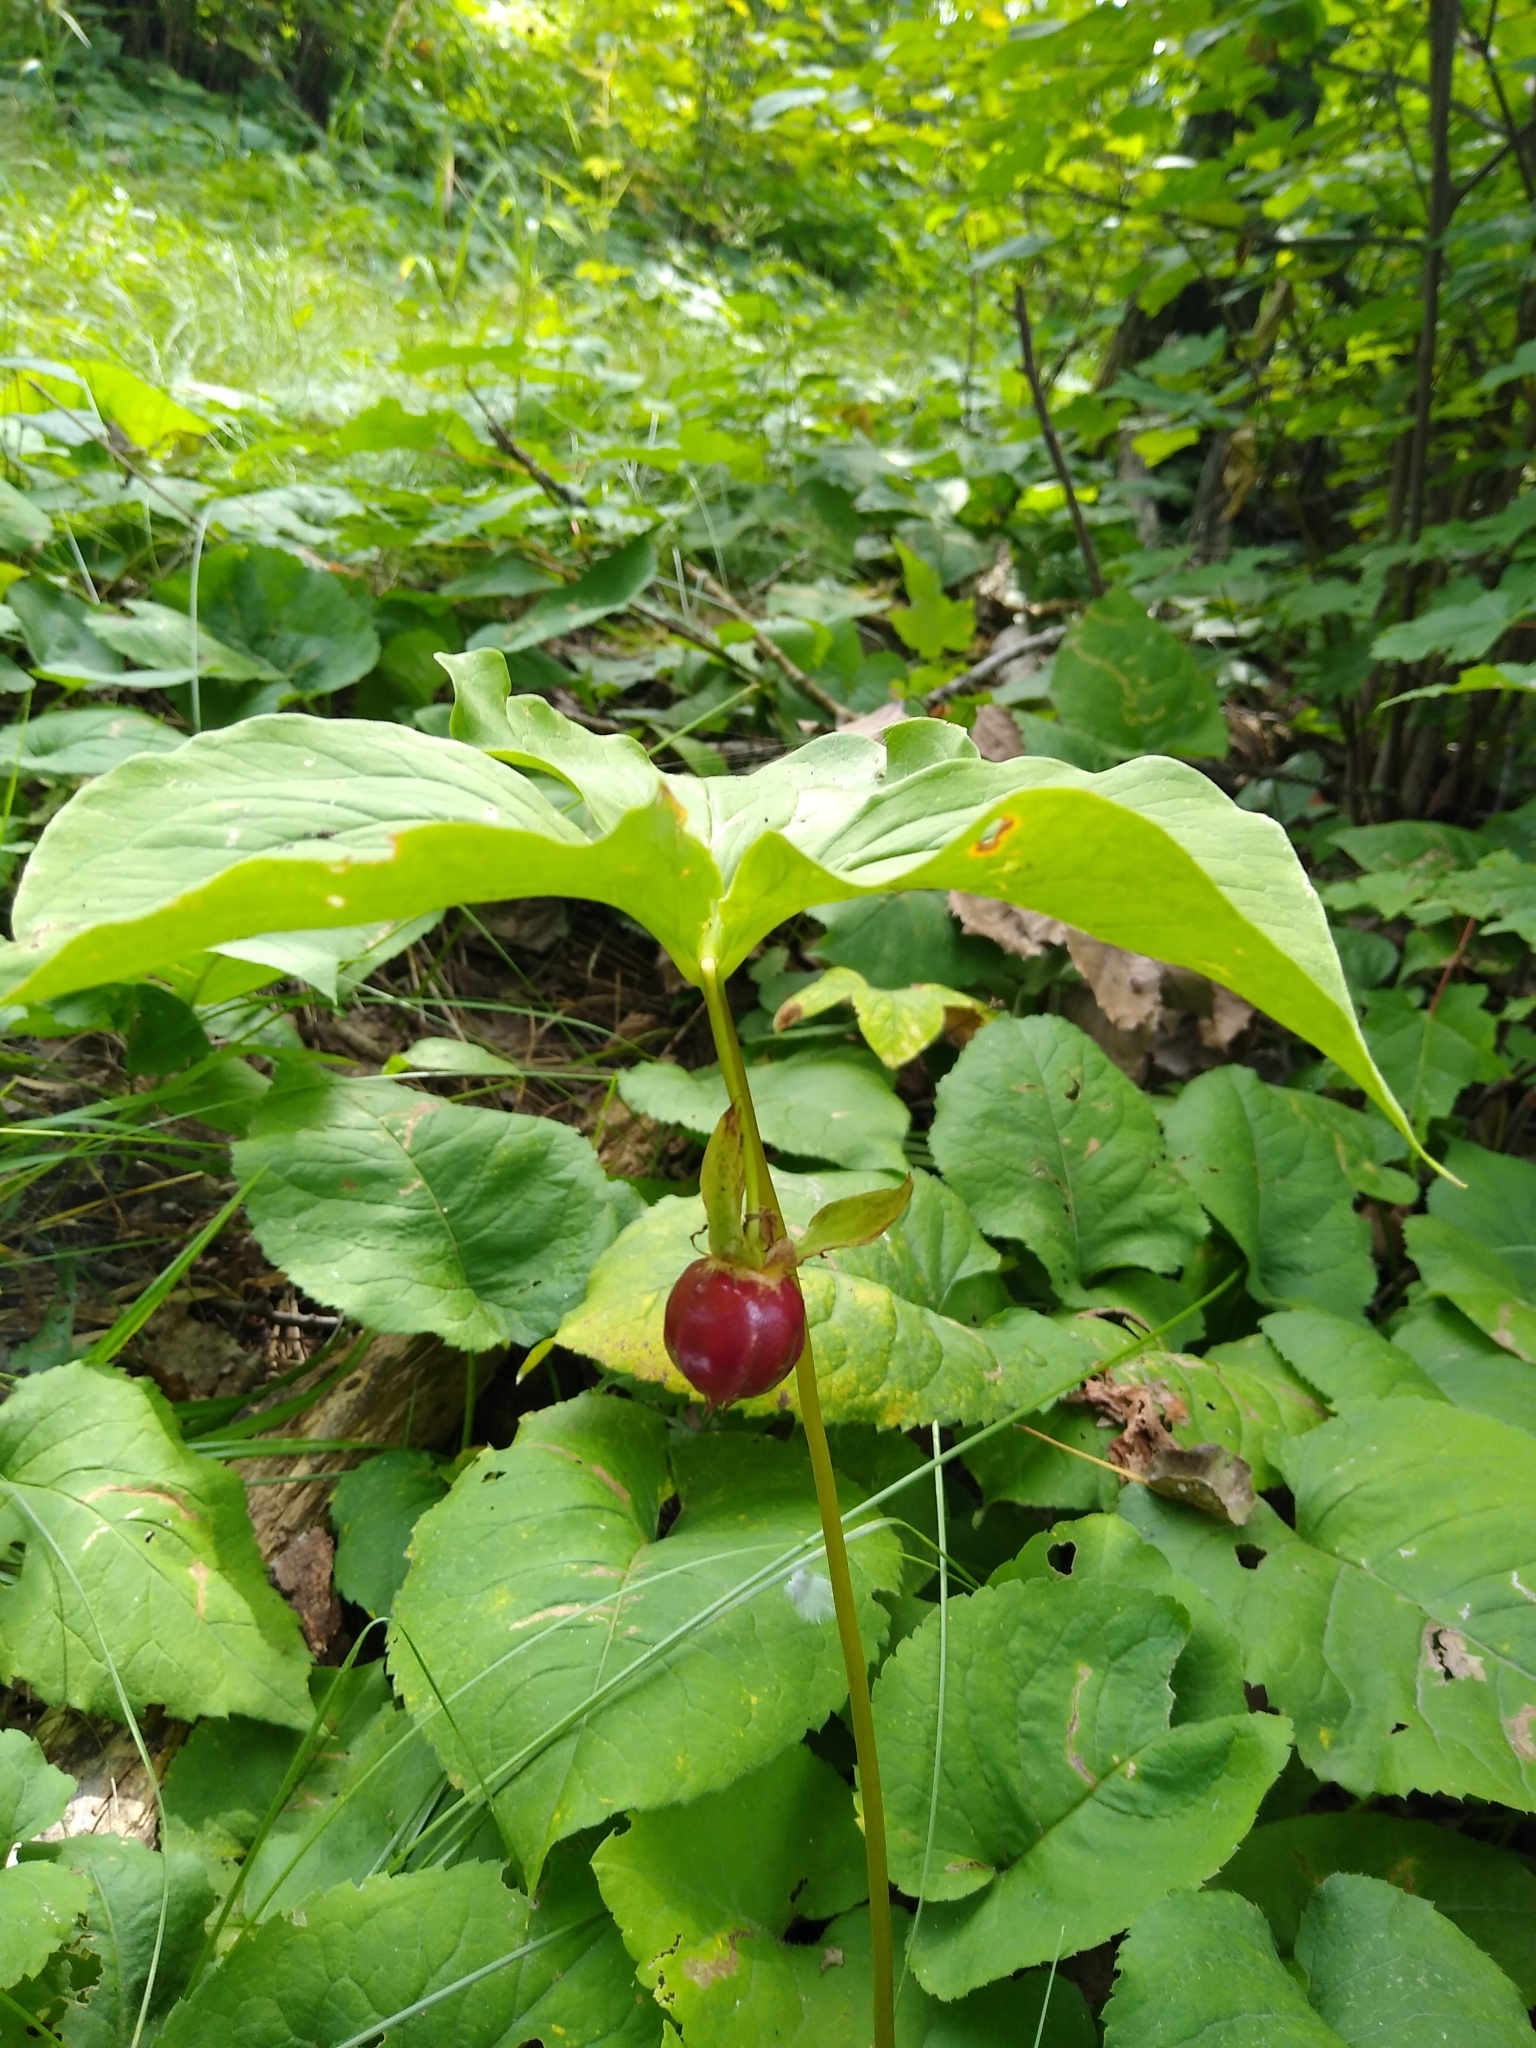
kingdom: Plantae
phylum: Tracheophyta
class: Liliopsida
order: Liliales
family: Melanthiaceae
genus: Trillium
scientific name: Trillium cernuum
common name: Nodding trillium
